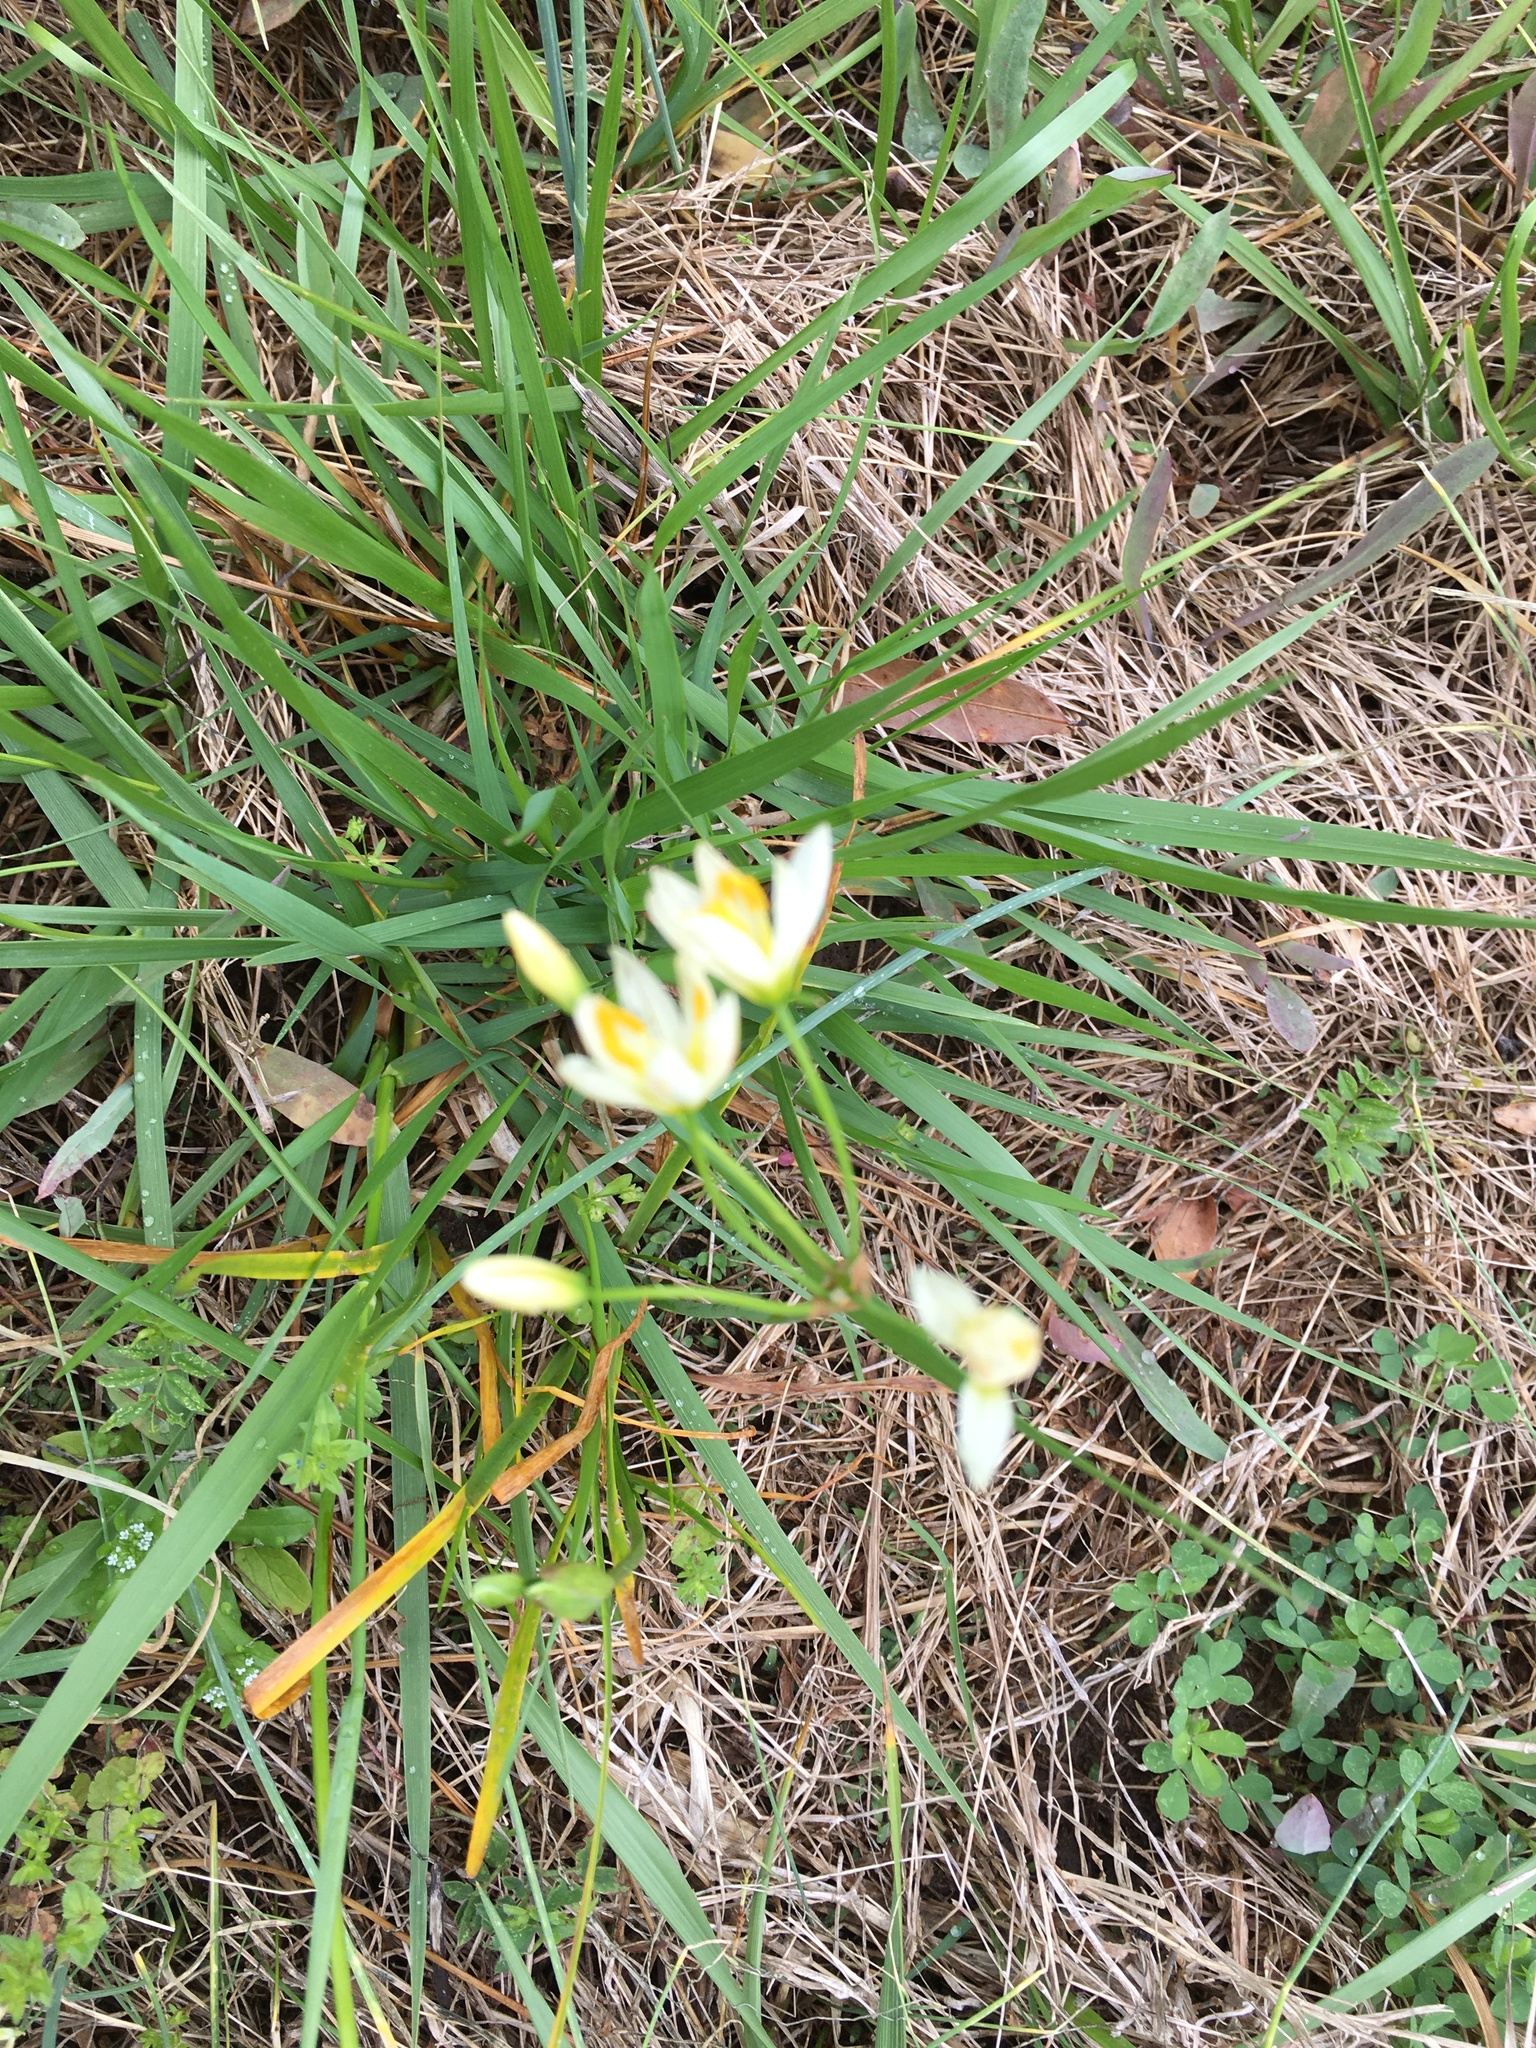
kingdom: Plantae
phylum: Tracheophyta
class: Liliopsida
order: Asparagales
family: Amaryllidaceae
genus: Nothoscordum
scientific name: Nothoscordum bivalve
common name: Crow-poison
